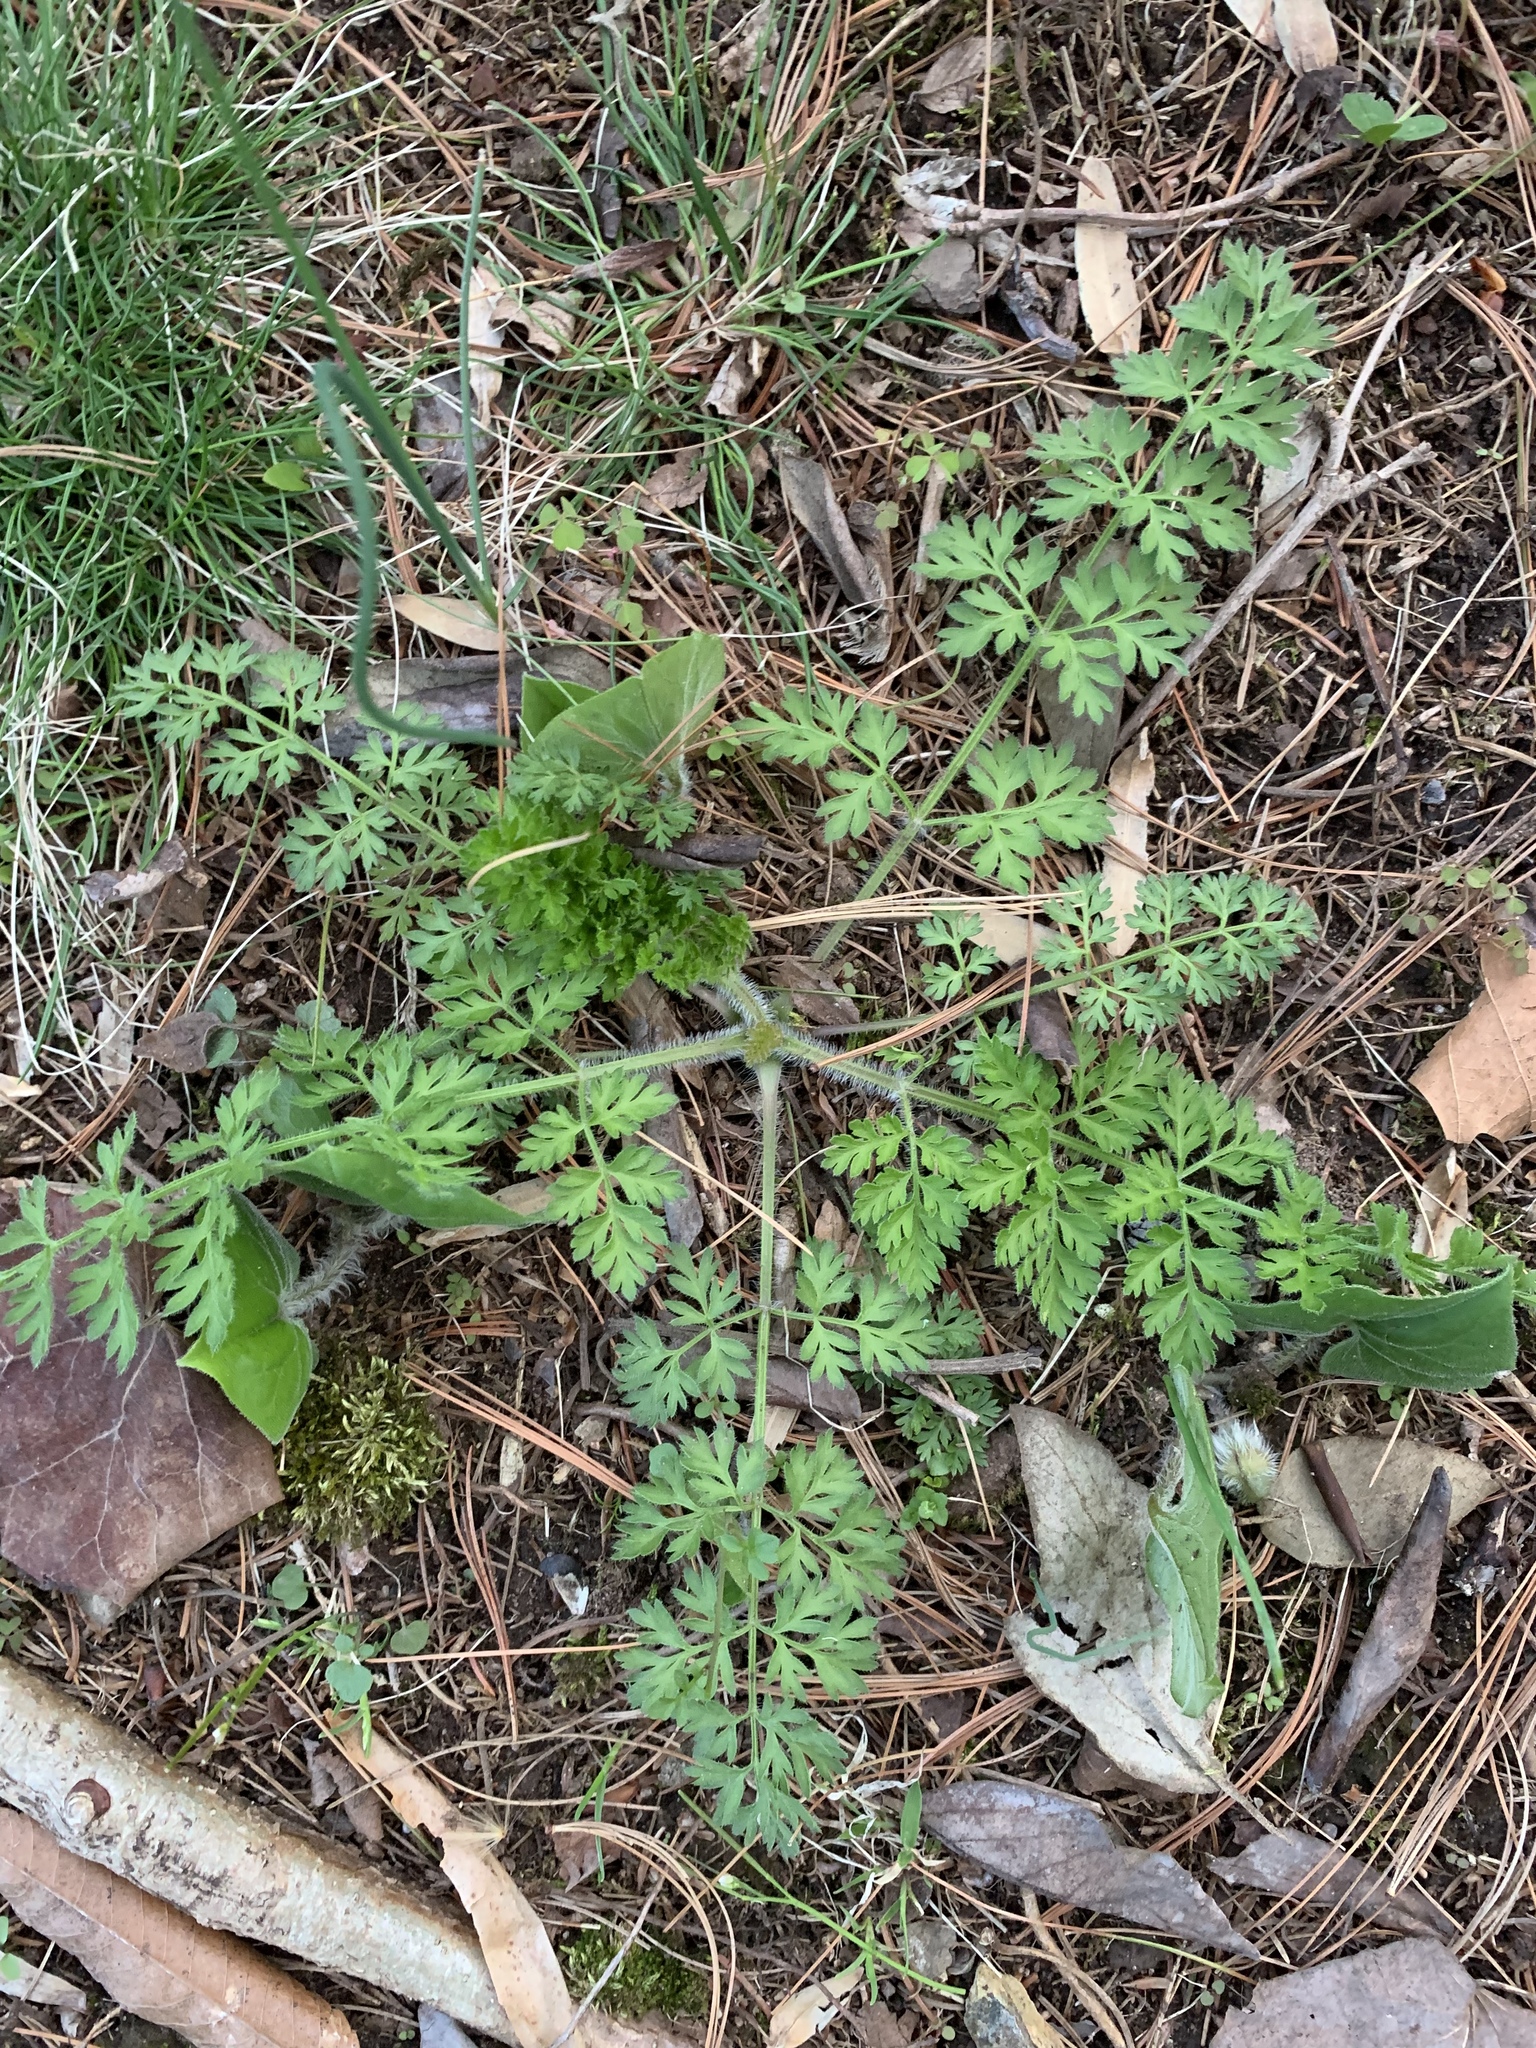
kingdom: Plantae
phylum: Tracheophyta
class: Magnoliopsida
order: Apiales
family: Apiaceae
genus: Daucus
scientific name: Daucus carota
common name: Wild carrot
